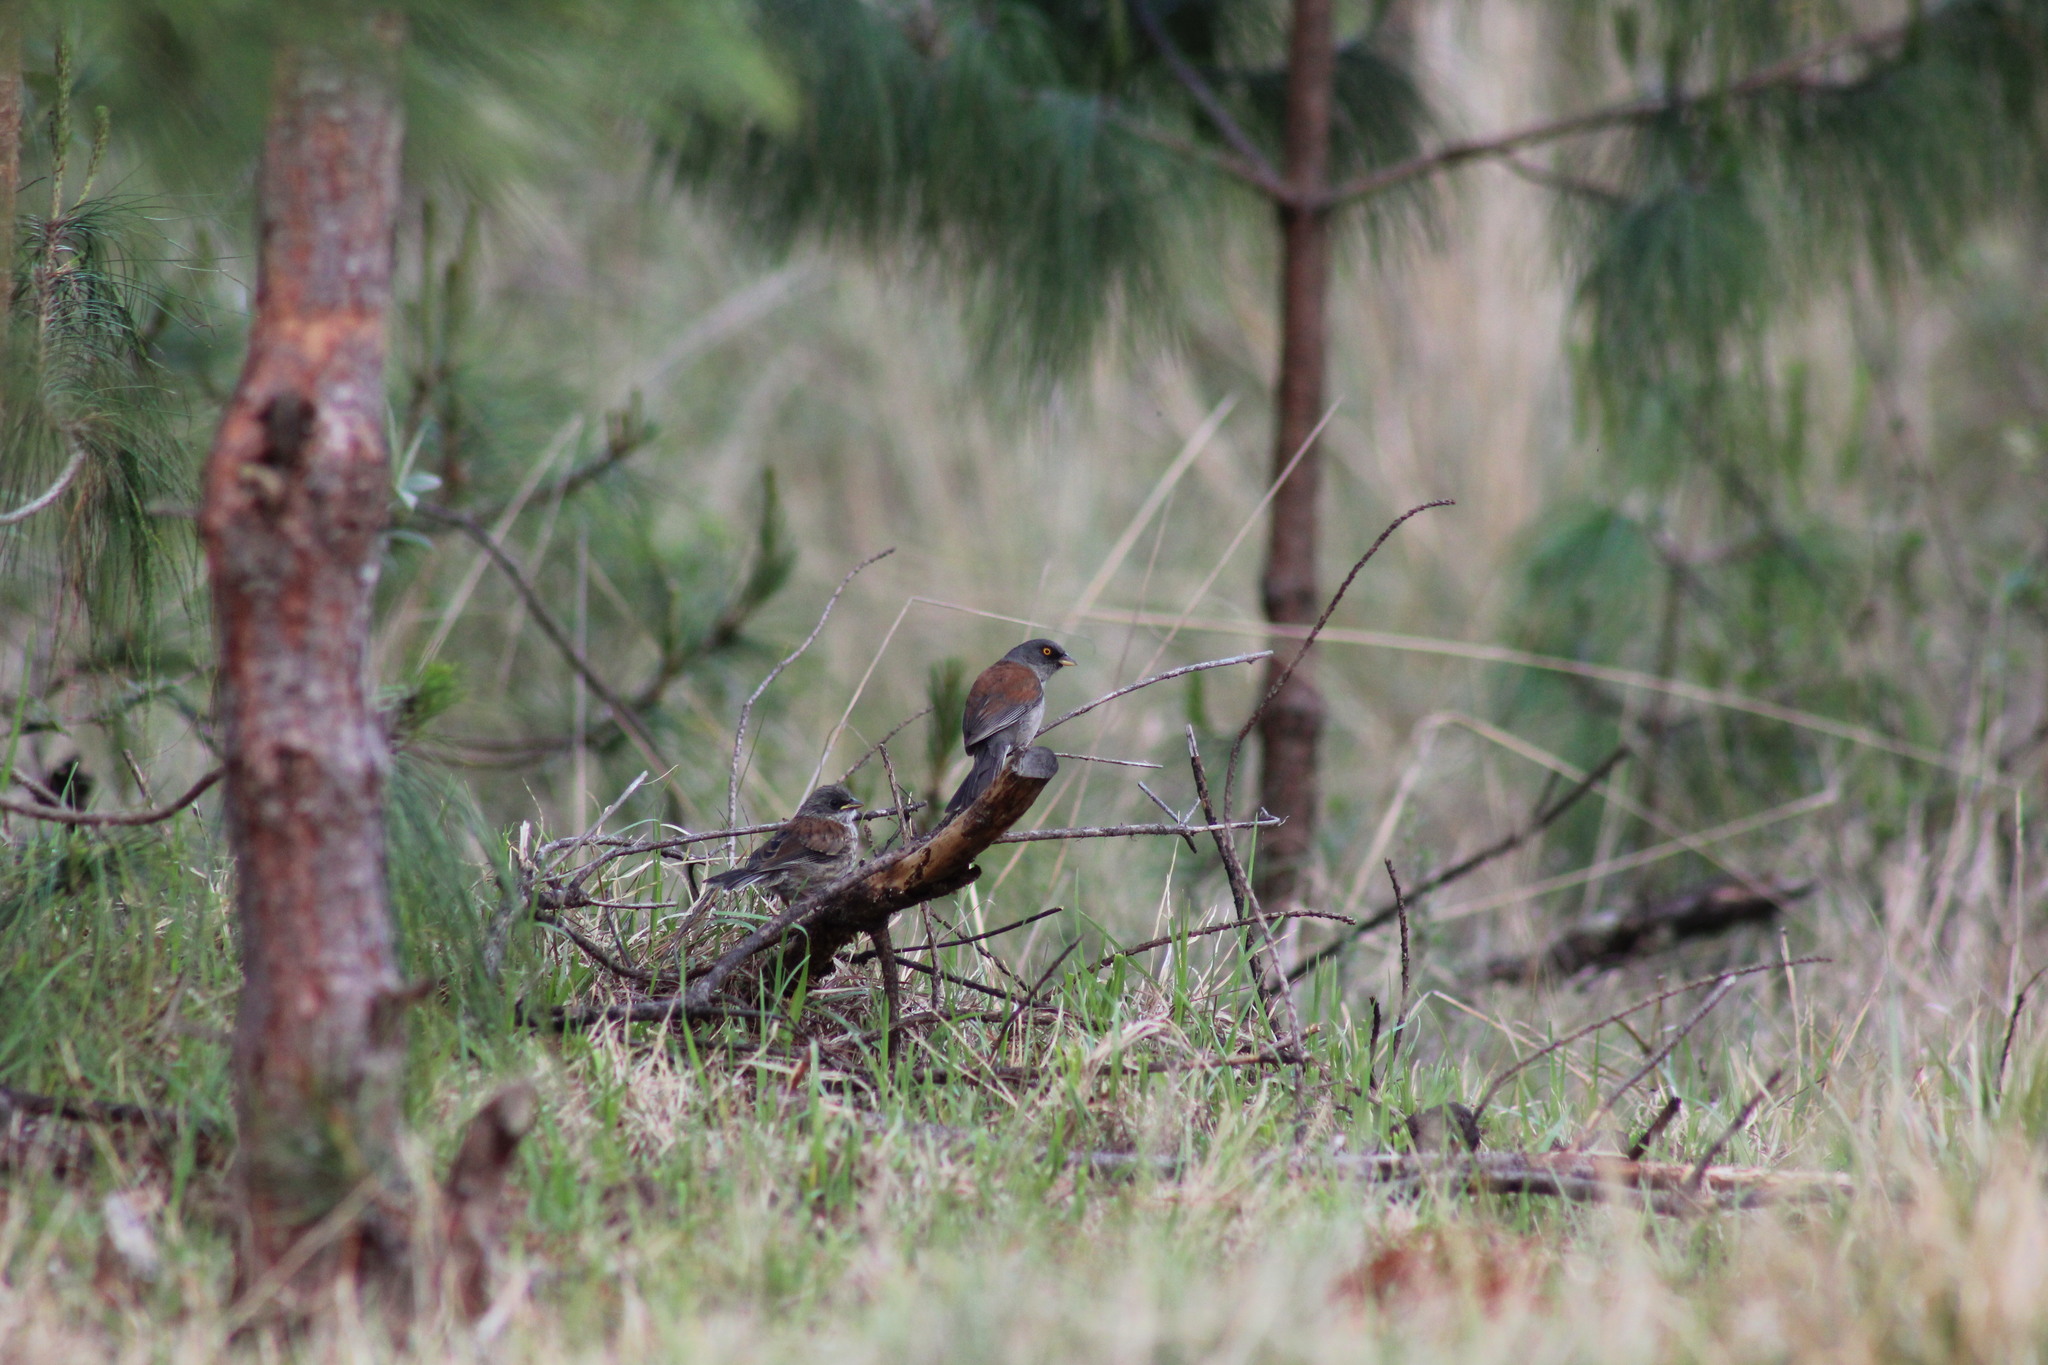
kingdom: Animalia
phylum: Chordata
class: Aves
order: Passeriformes
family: Passerellidae
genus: Junco
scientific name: Junco phaeonotus
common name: Yellow-eyed junco
